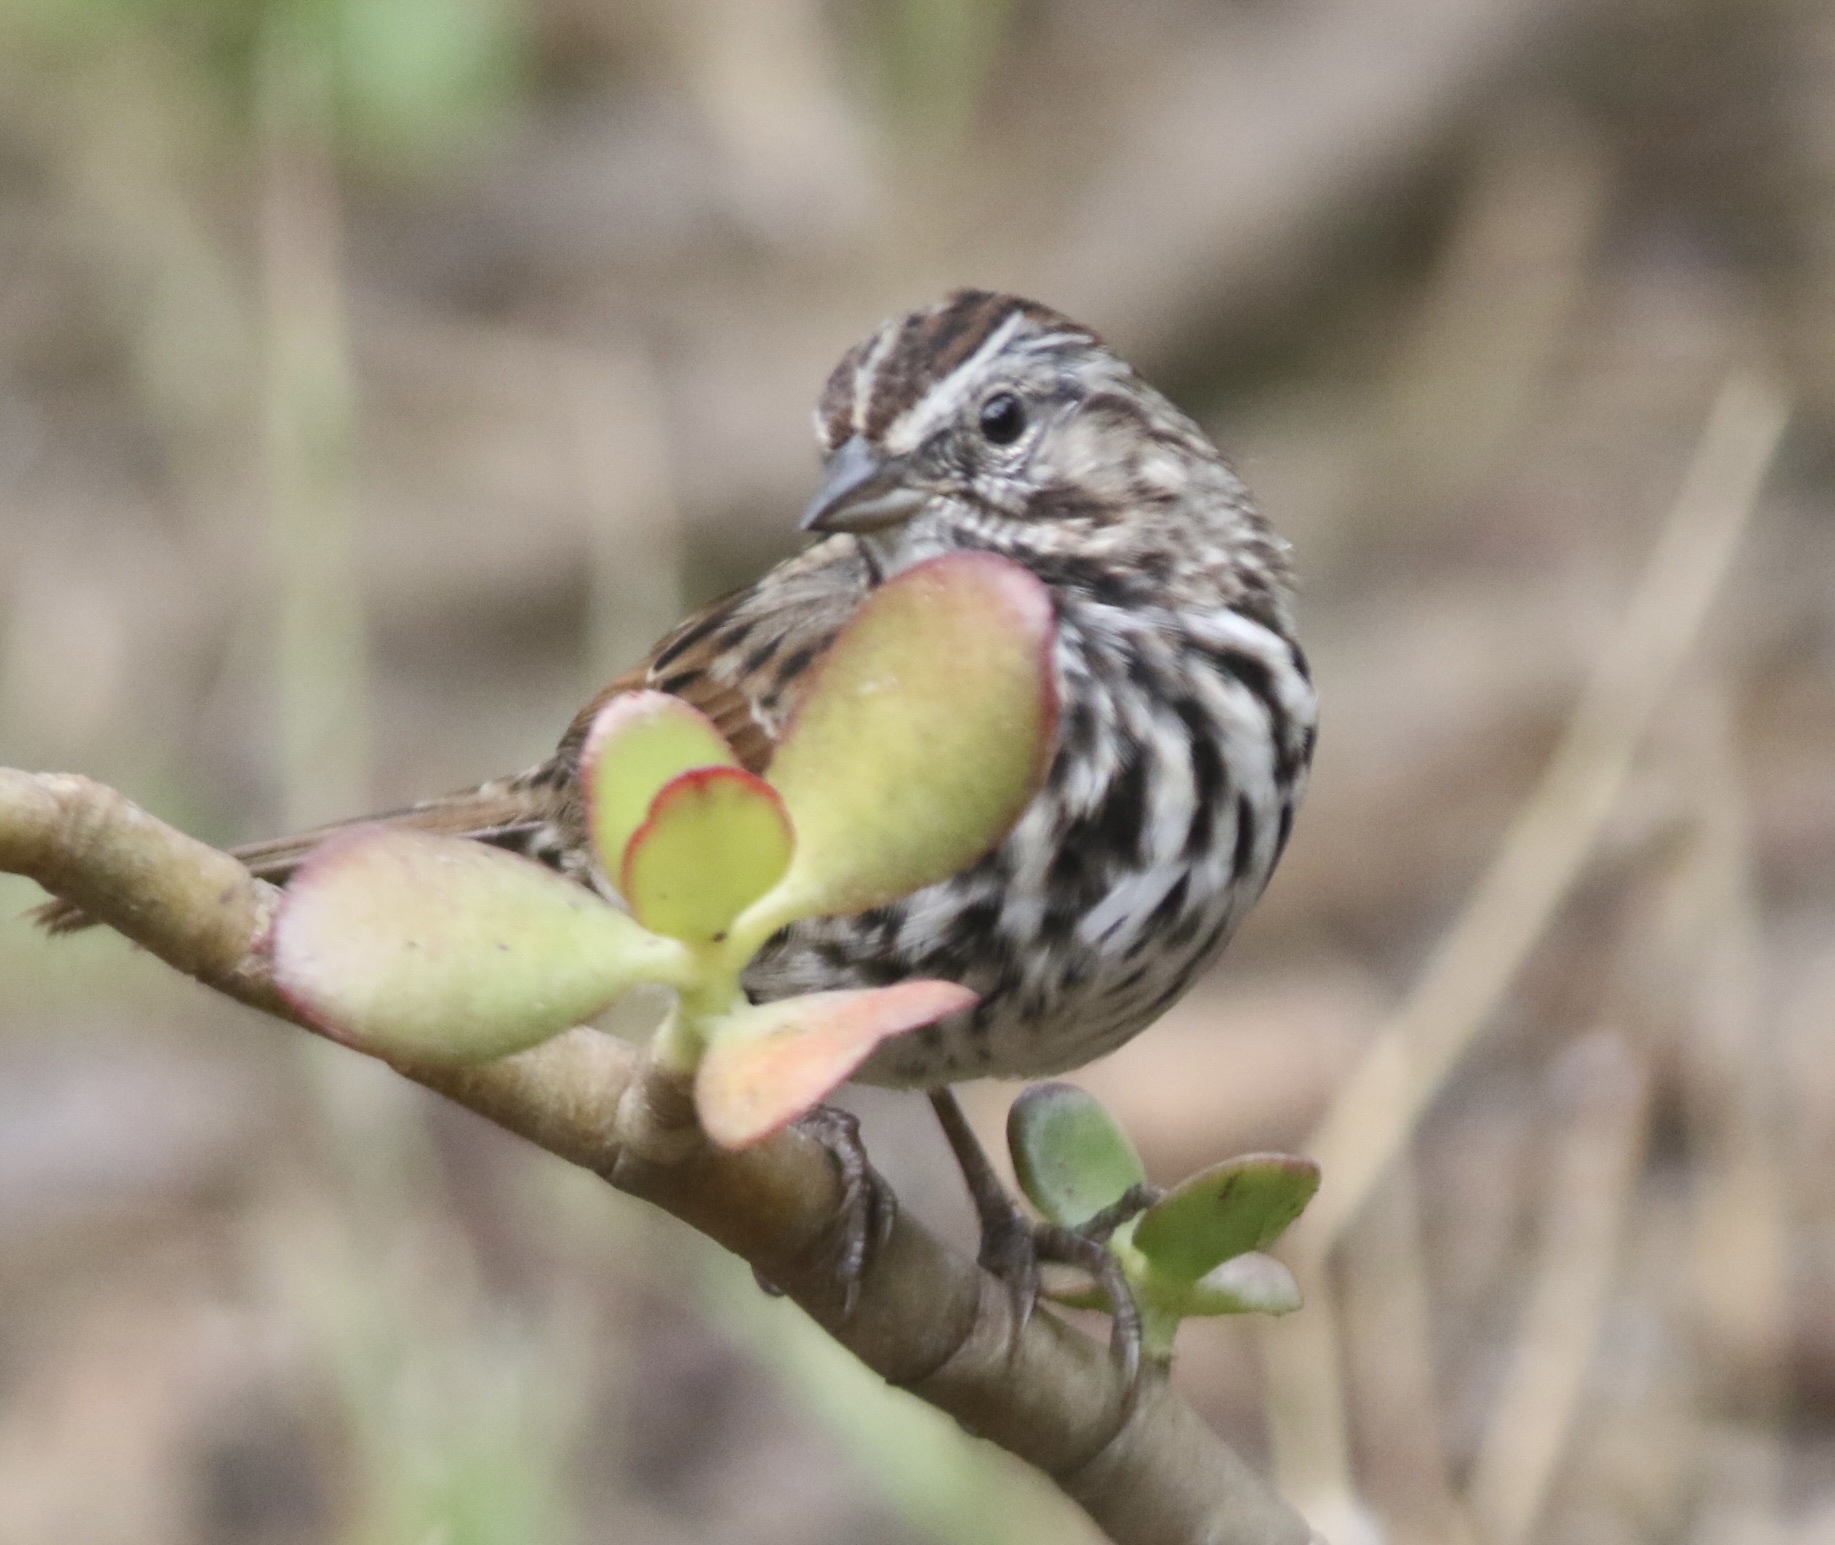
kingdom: Animalia
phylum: Chordata
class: Aves
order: Passeriformes
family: Passerellidae
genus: Melospiza
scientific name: Melospiza melodia
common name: Song sparrow
